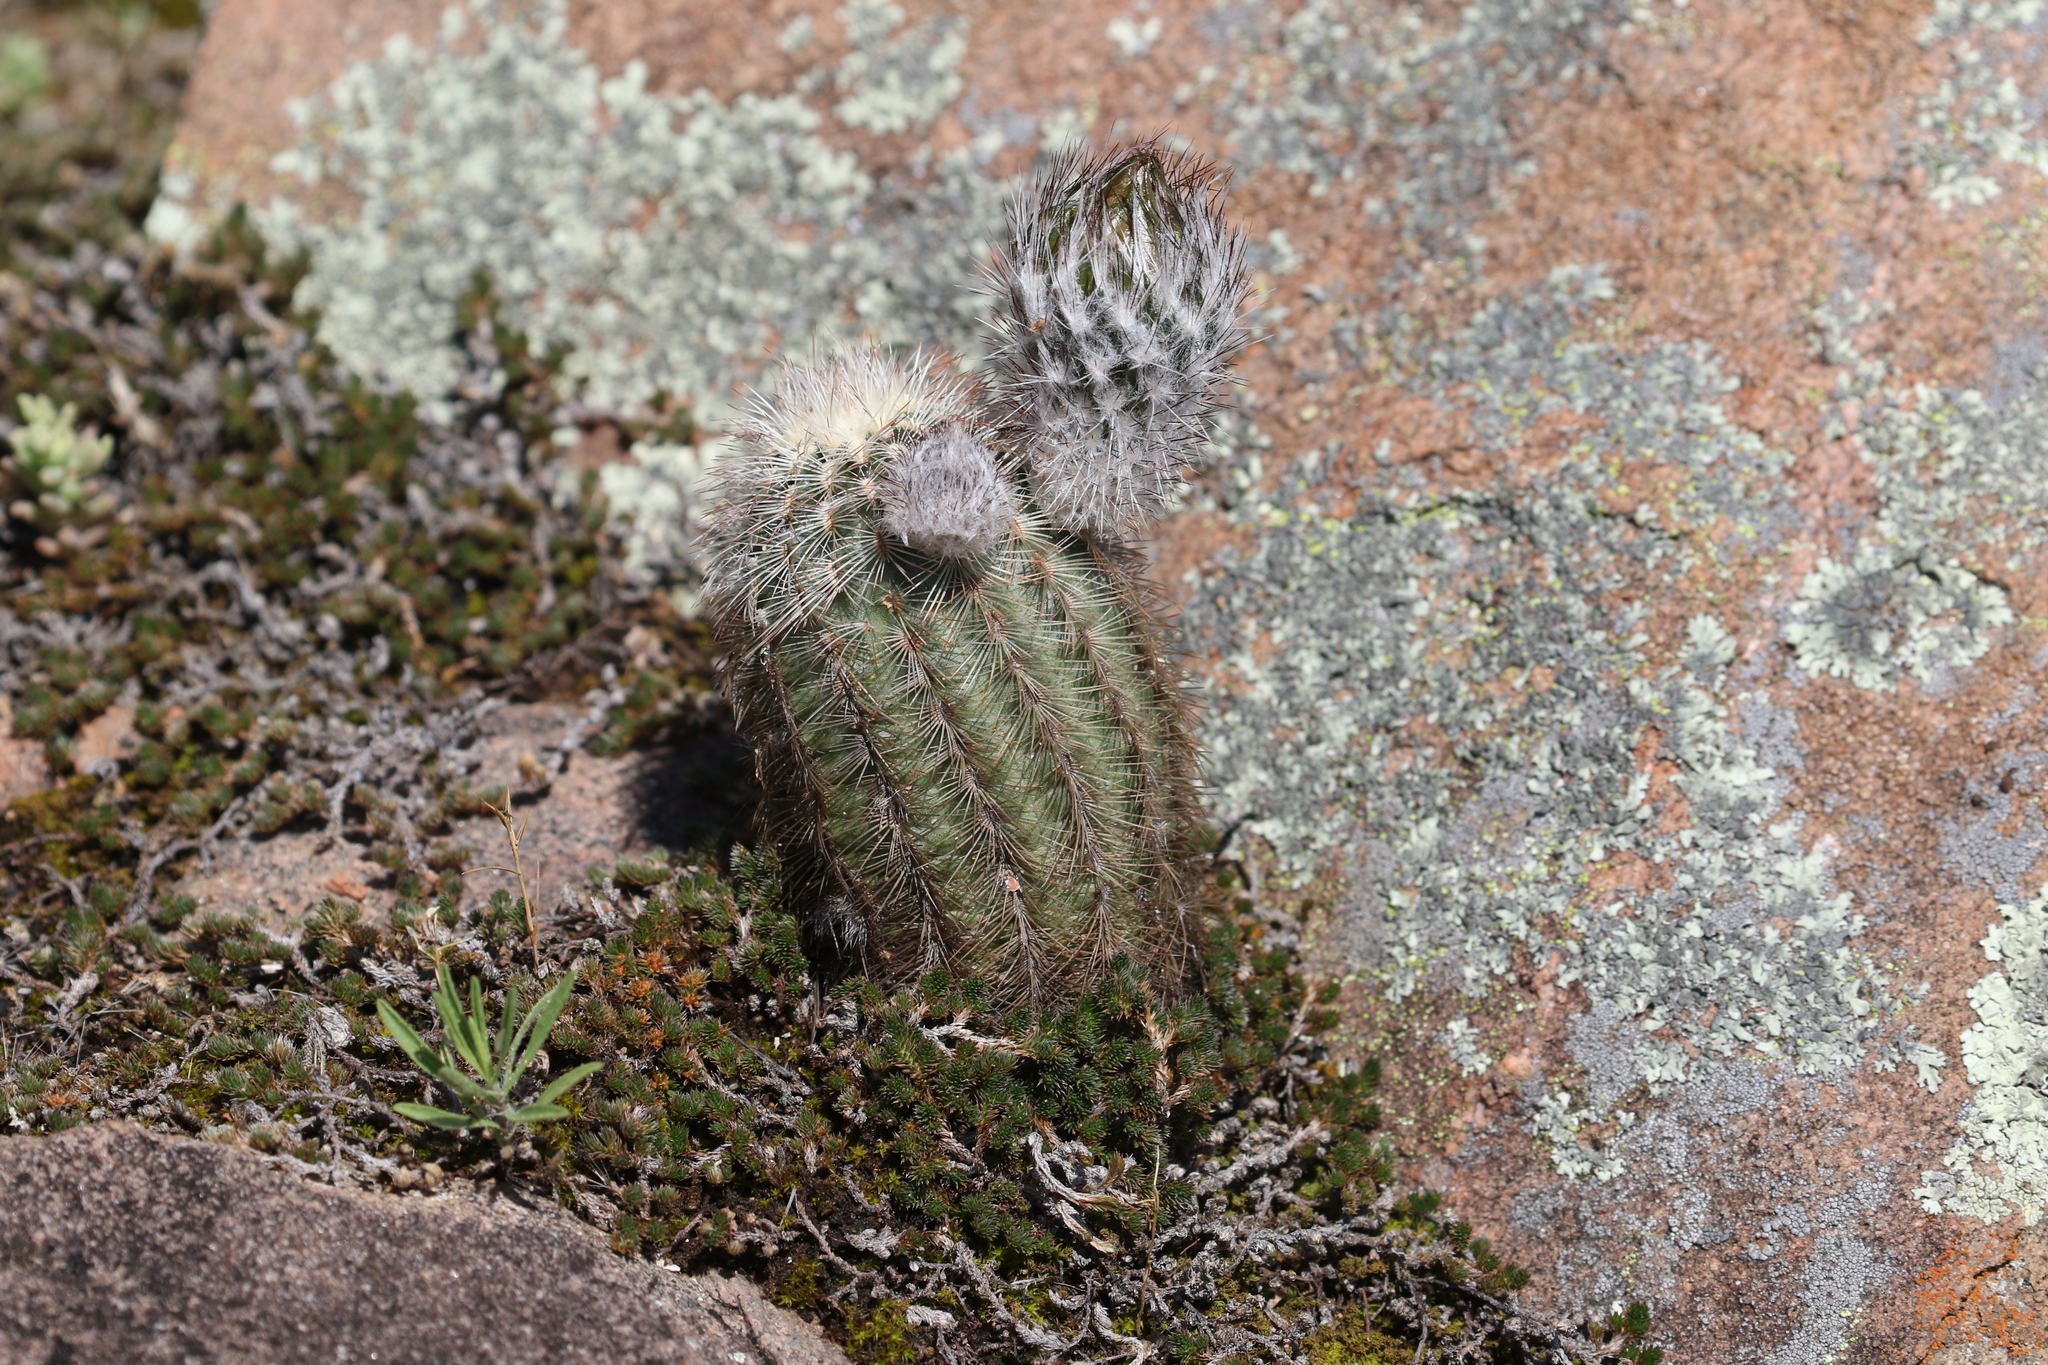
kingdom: Plantae
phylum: Tracheophyta
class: Magnoliopsida
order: Caryophyllales
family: Cactaceae
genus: Echinocereus
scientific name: Echinocereus reichenbachii
